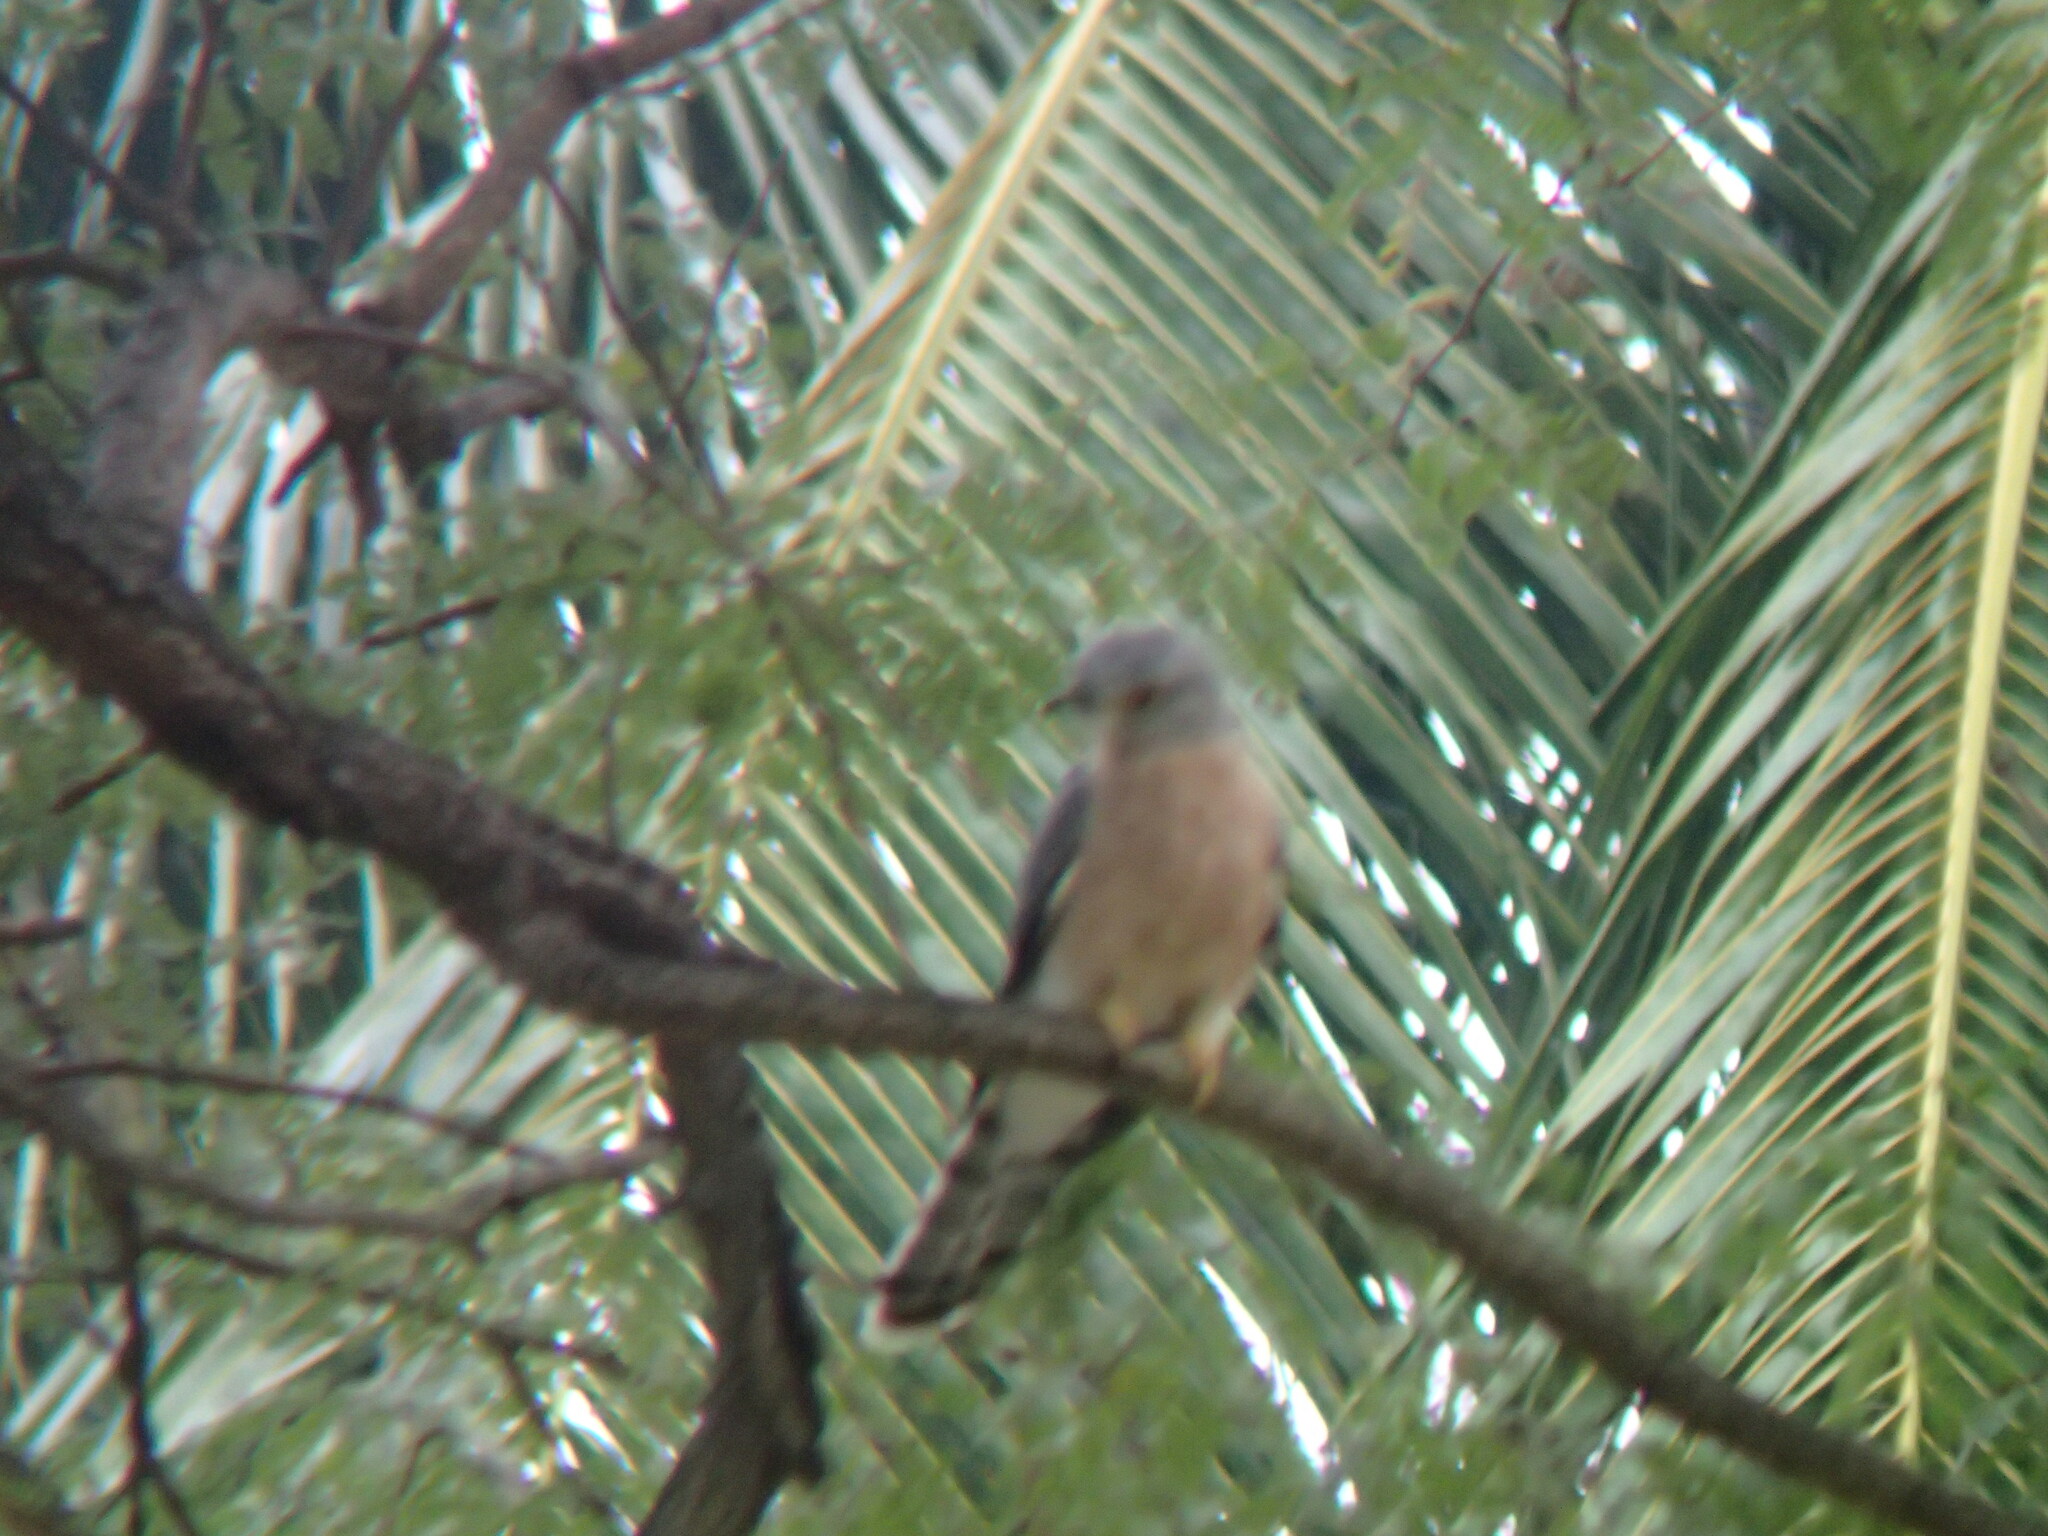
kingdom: Animalia
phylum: Chordata
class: Aves
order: Cuculiformes
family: Cuculidae
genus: Cuculus
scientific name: Cuculus varius
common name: Common hawk cuckoo
